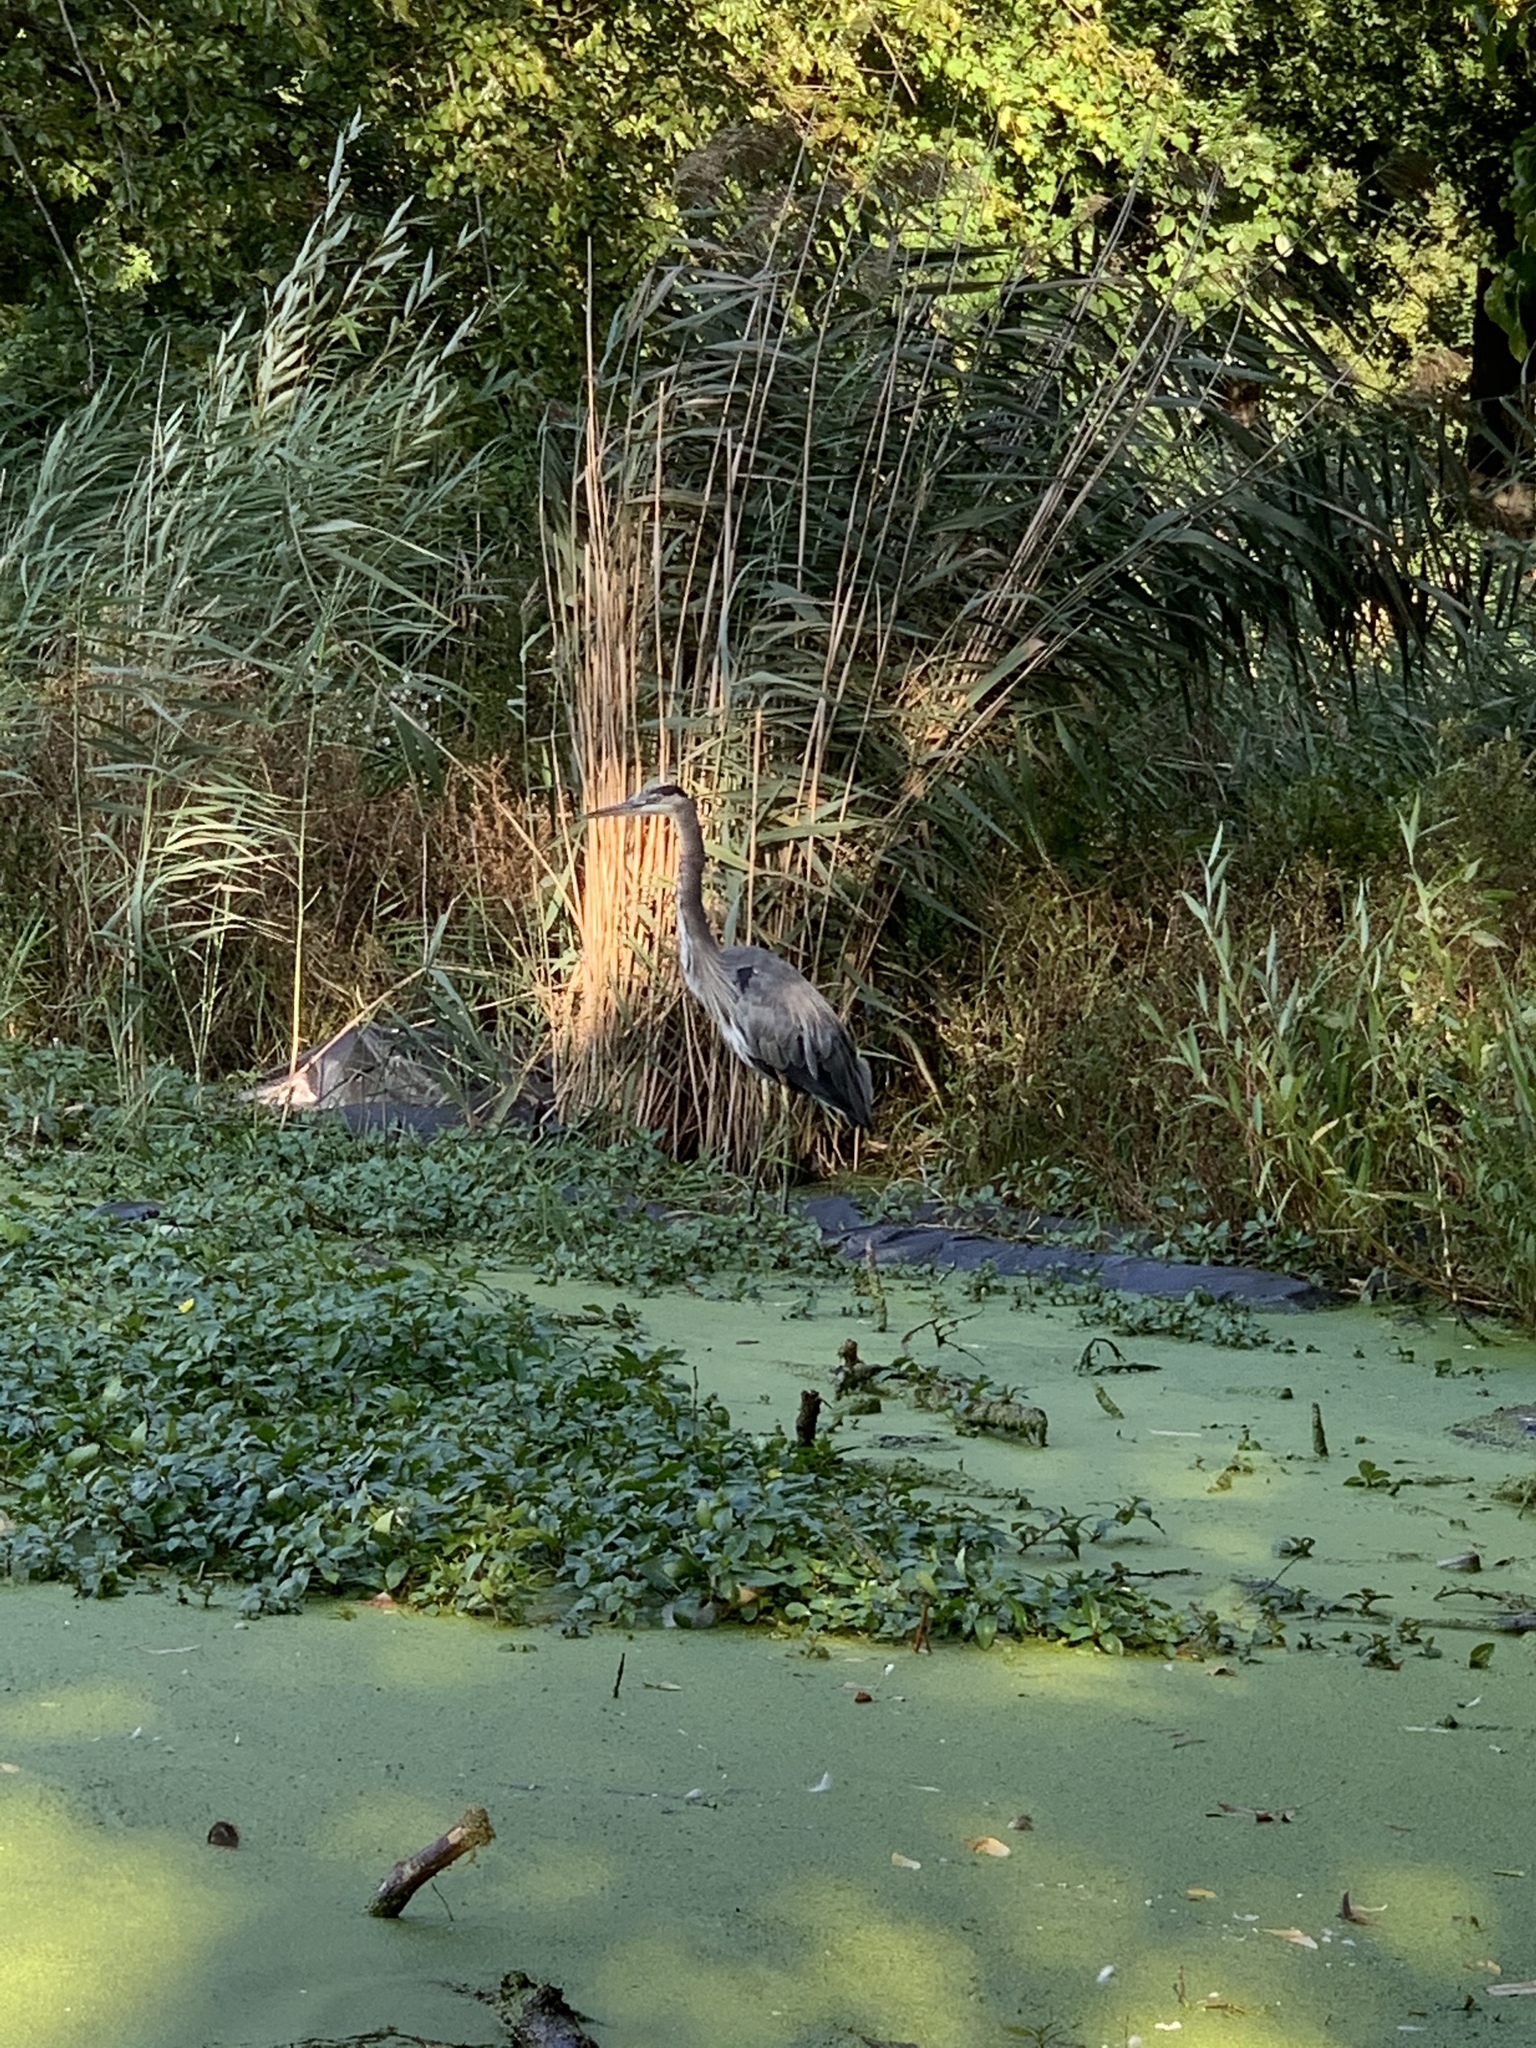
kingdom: Animalia
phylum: Chordata
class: Aves
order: Pelecaniformes
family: Ardeidae
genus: Ardea
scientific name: Ardea herodias
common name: Great blue heron
